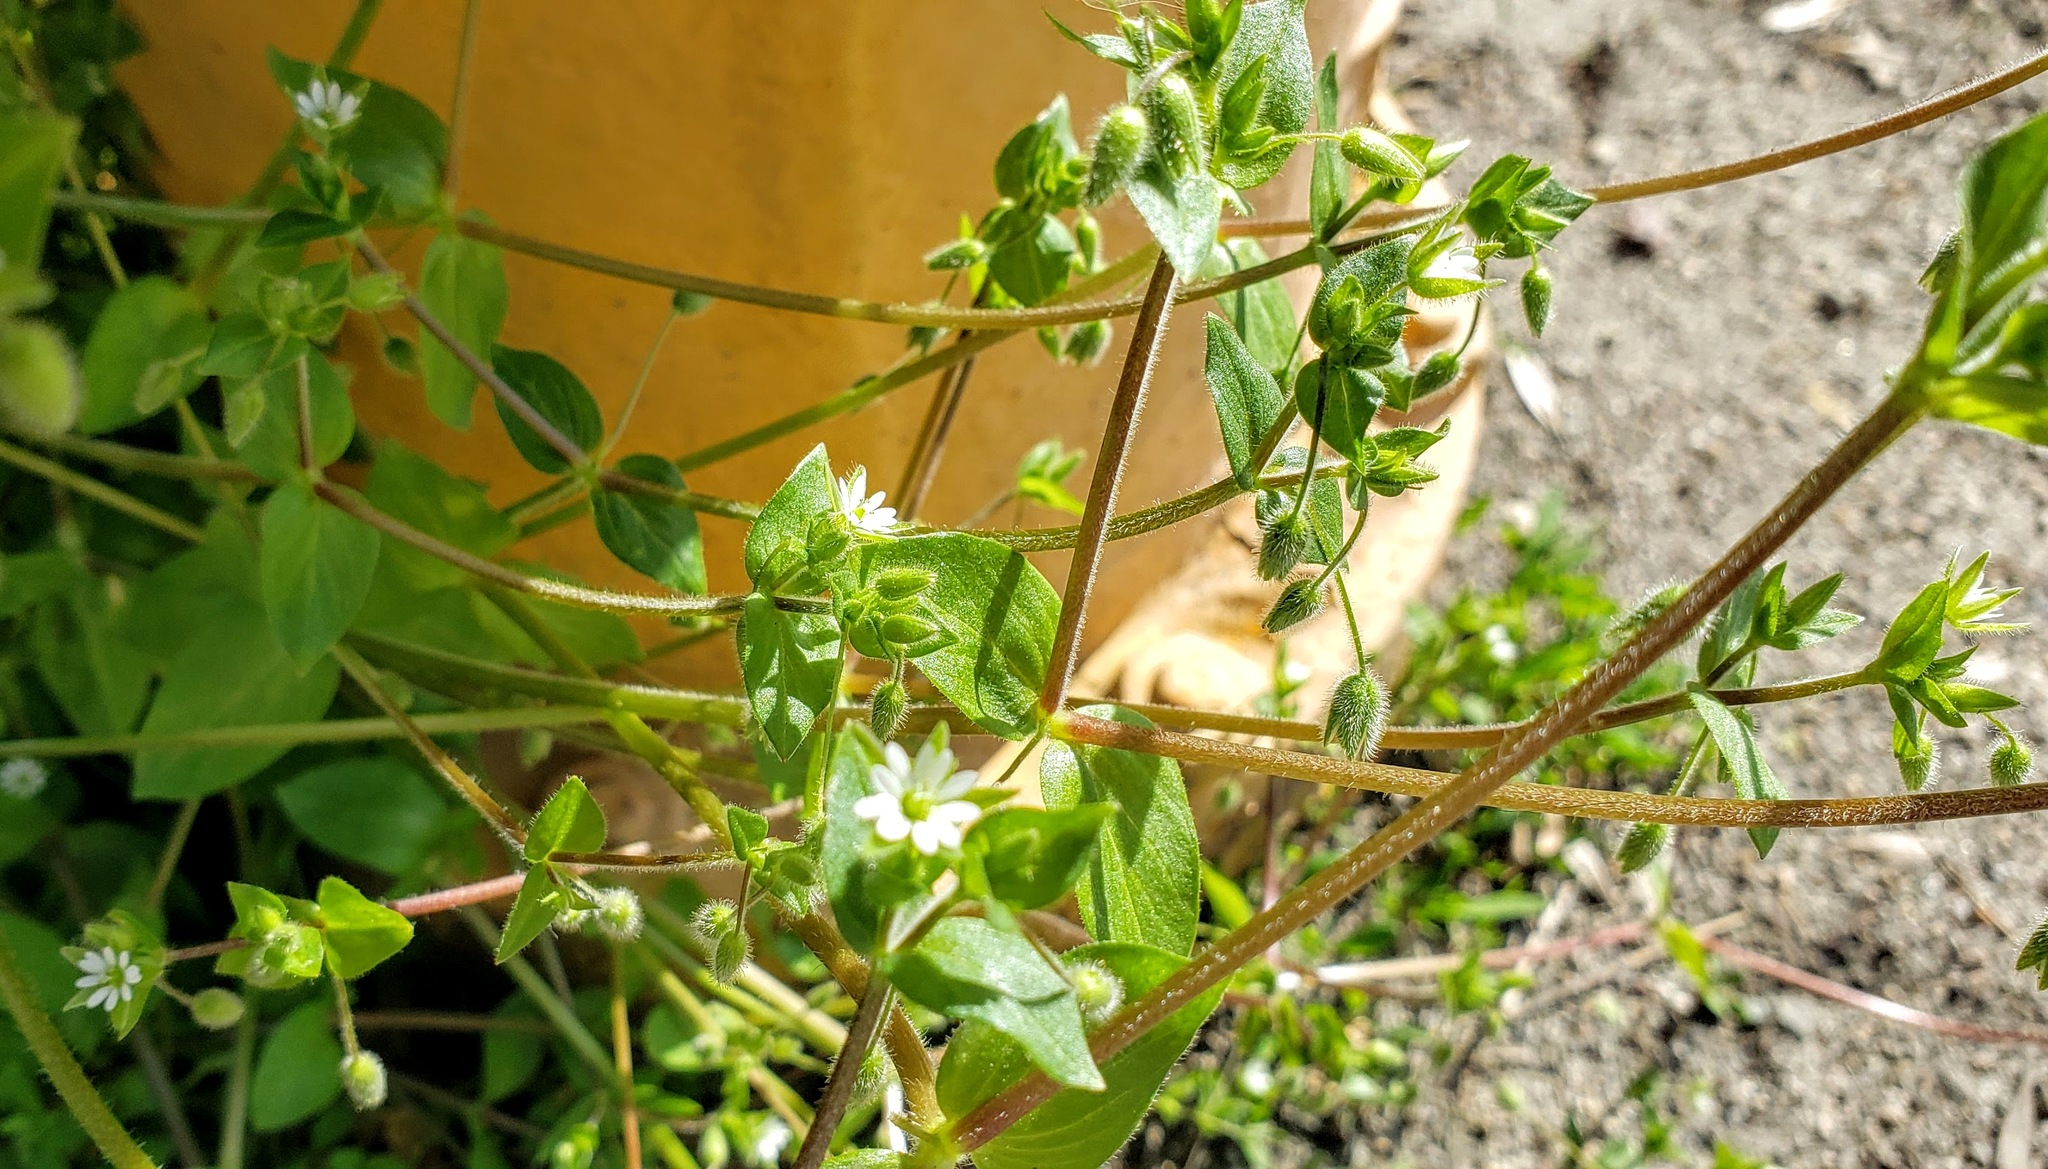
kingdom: Plantae
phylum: Tracheophyta
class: Magnoliopsida
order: Caryophyllales
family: Caryophyllaceae
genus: Stellaria
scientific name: Stellaria media
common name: Common chickweed
